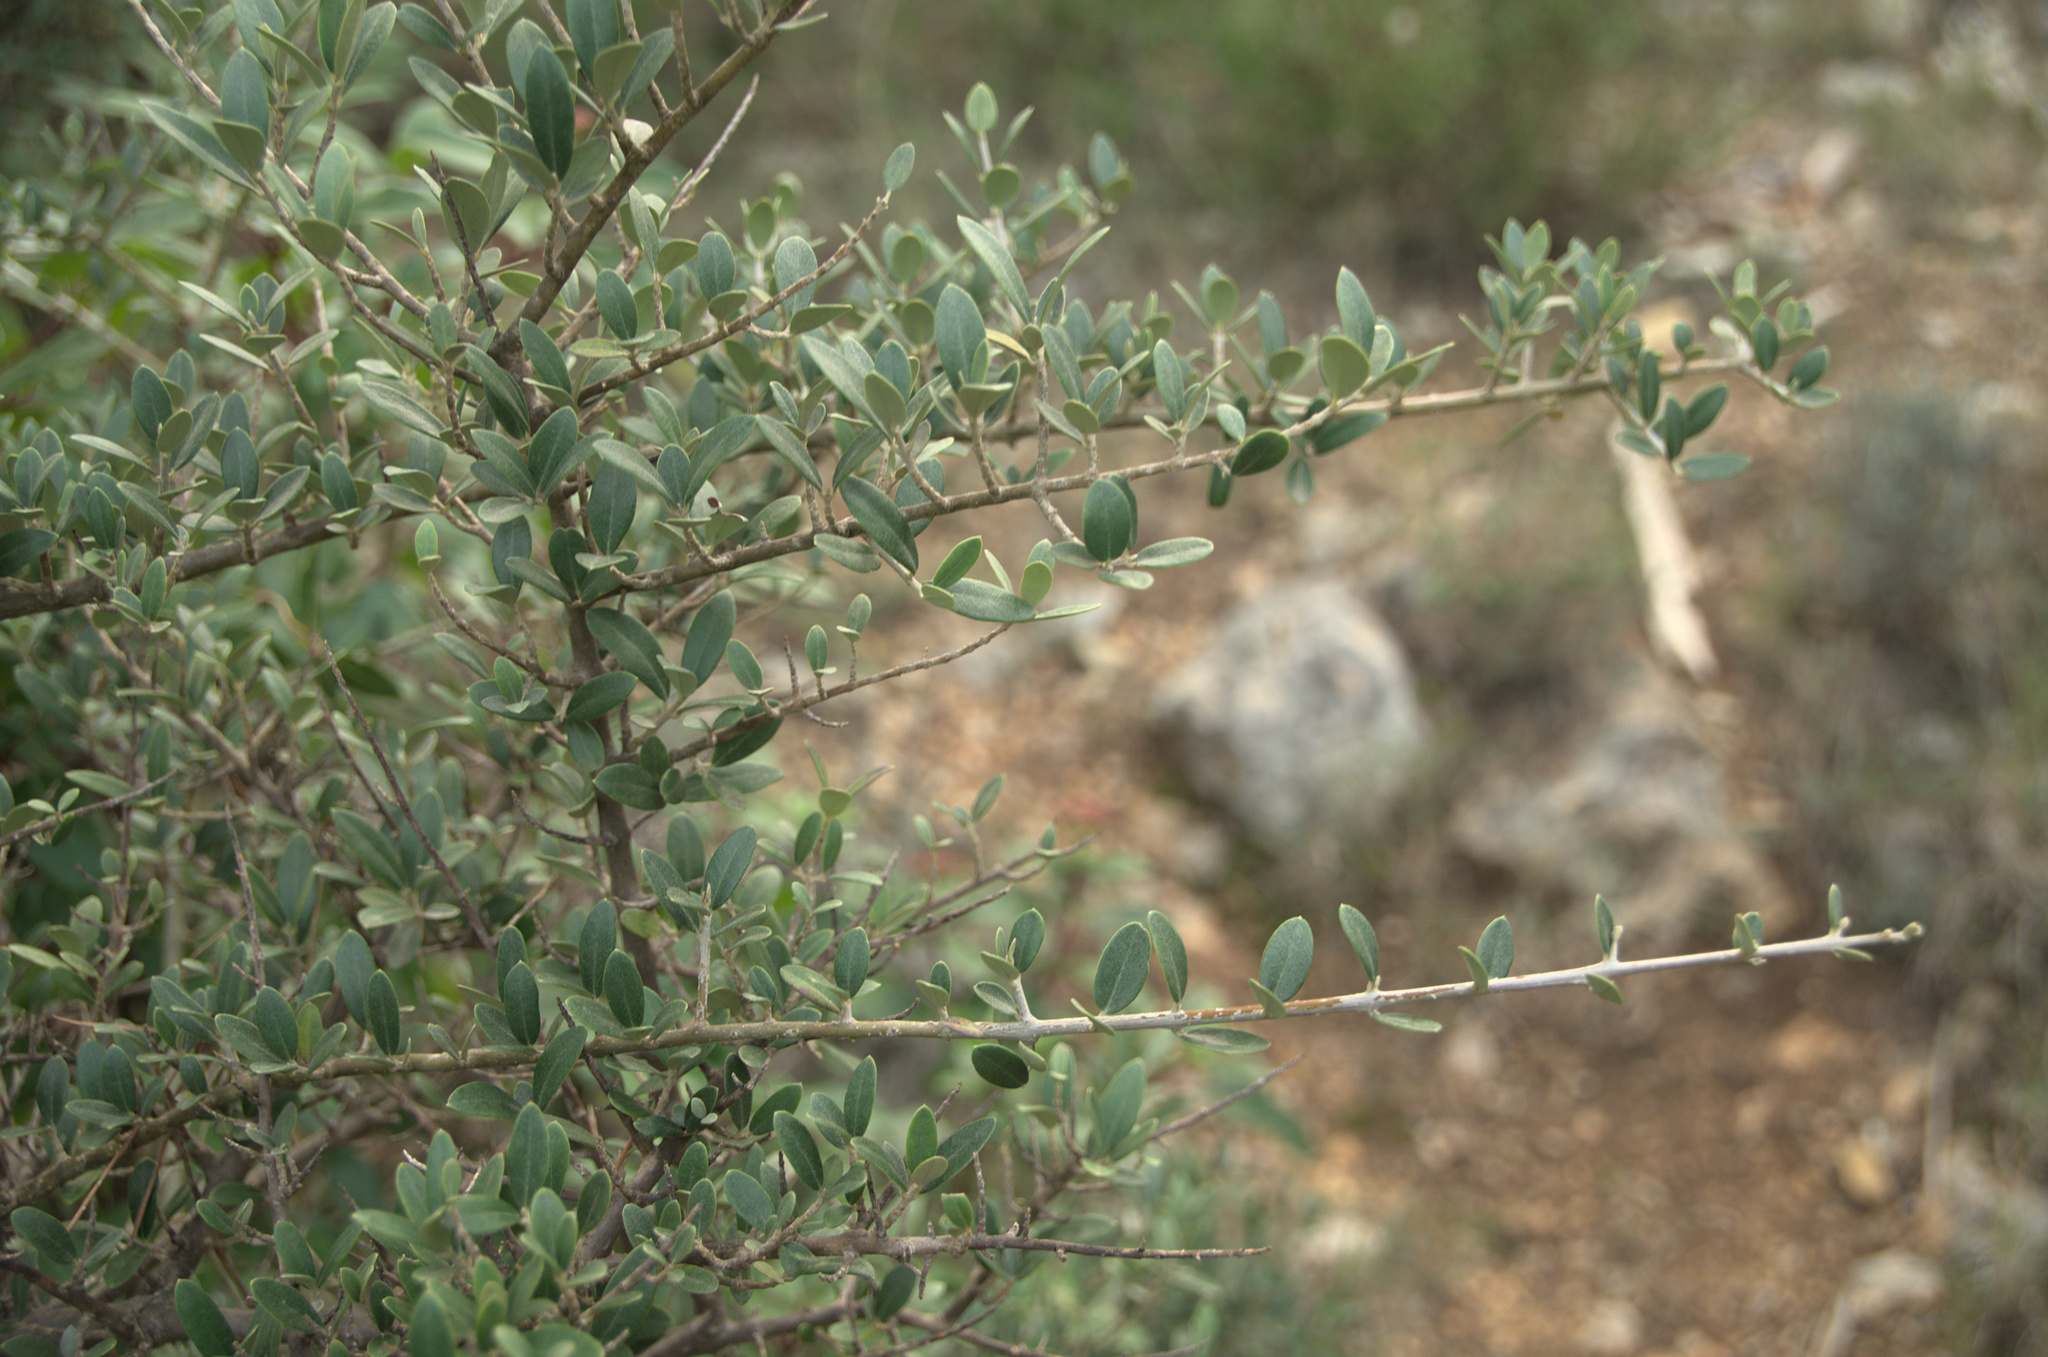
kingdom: Plantae
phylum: Tracheophyta
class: Magnoliopsida
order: Lamiales
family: Oleaceae
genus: Olea
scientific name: Olea europaea
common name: Olive
